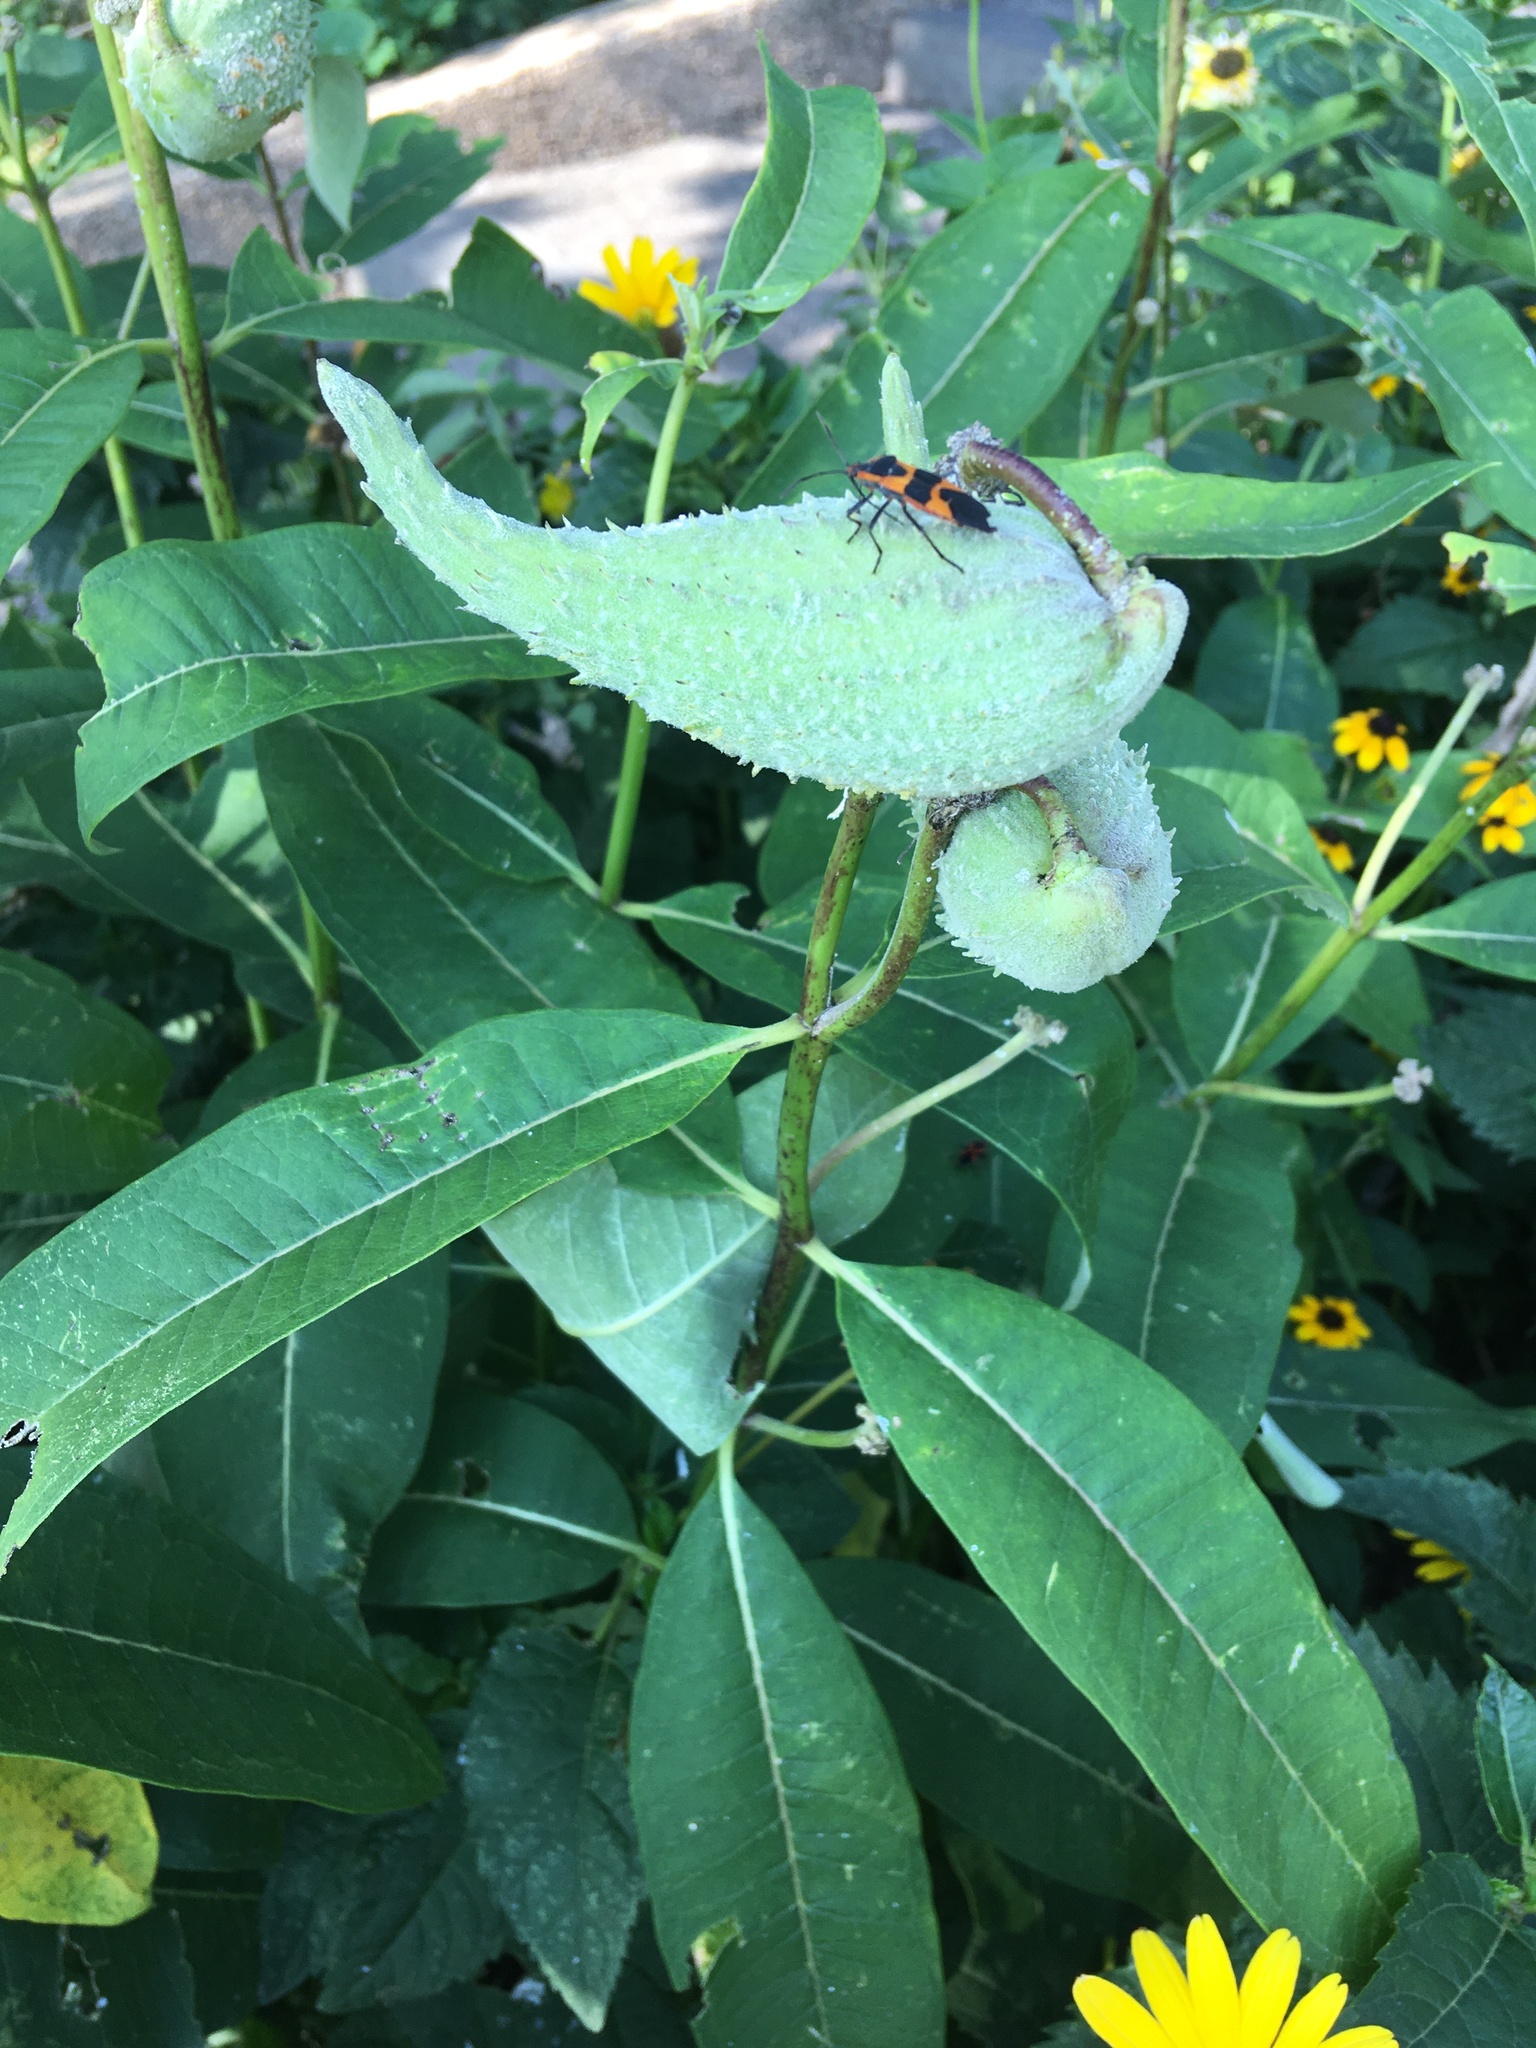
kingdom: Plantae
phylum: Tracheophyta
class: Magnoliopsida
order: Gentianales
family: Apocynaceae
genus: Asclepias
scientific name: Asclepias syriaca
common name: Common milkweed
